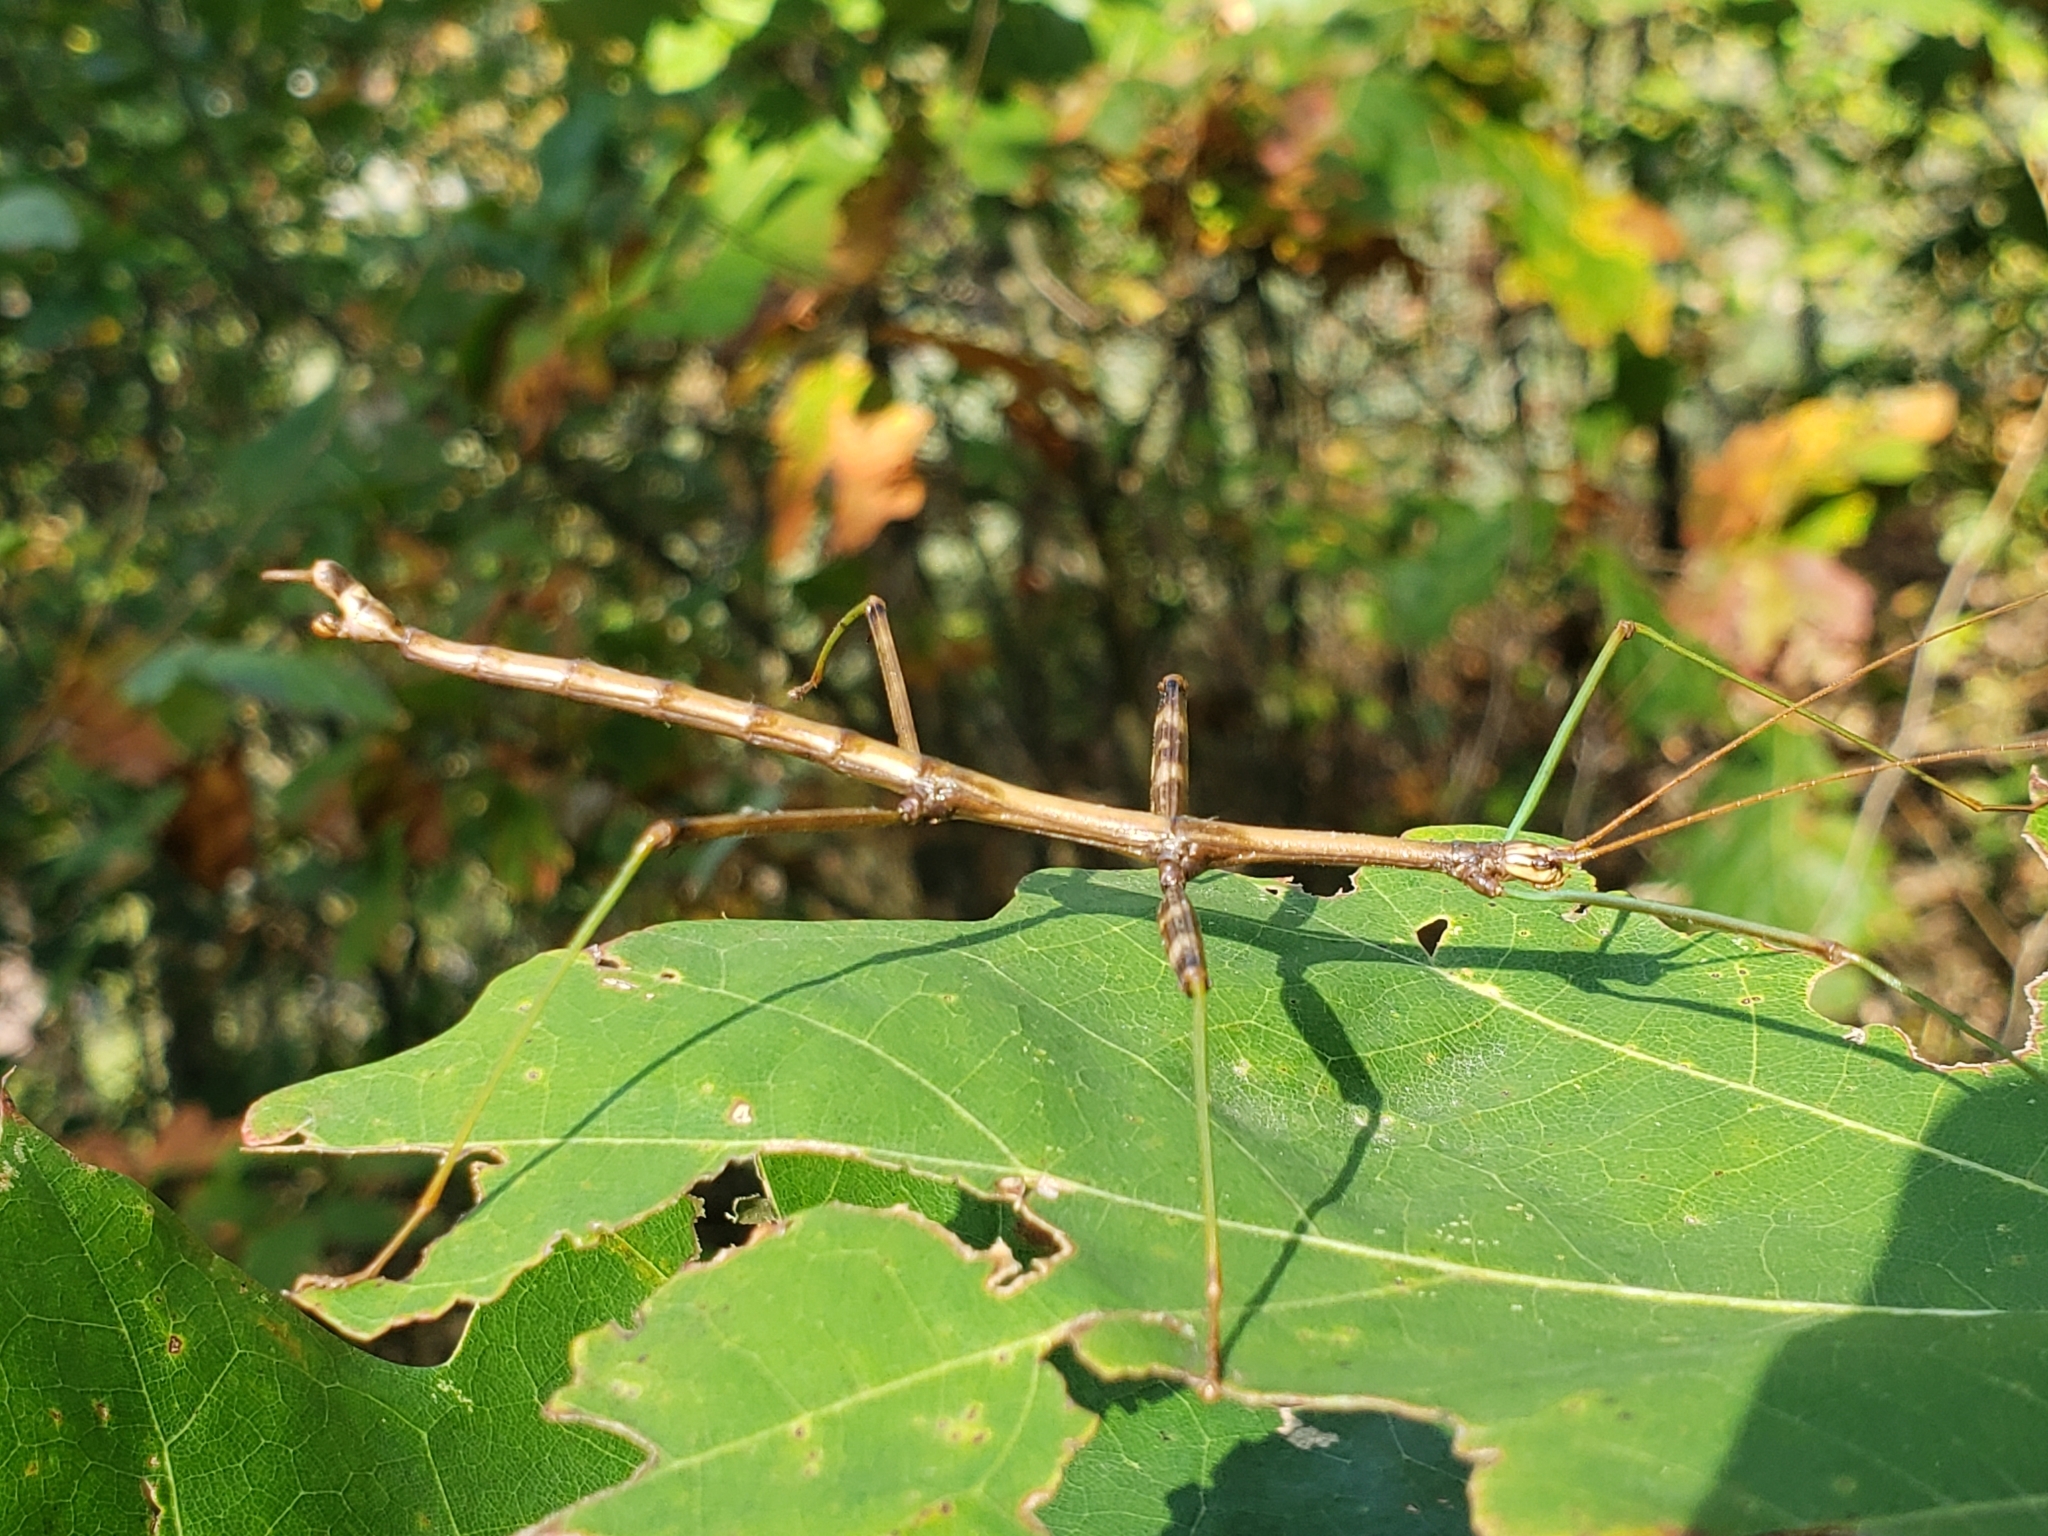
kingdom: Animalia
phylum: Arthropoda
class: Insecta
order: Phasmida
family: Diapheromeridae
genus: Diapheromera
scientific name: Diapheromera femorata
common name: Common american walkingstick
